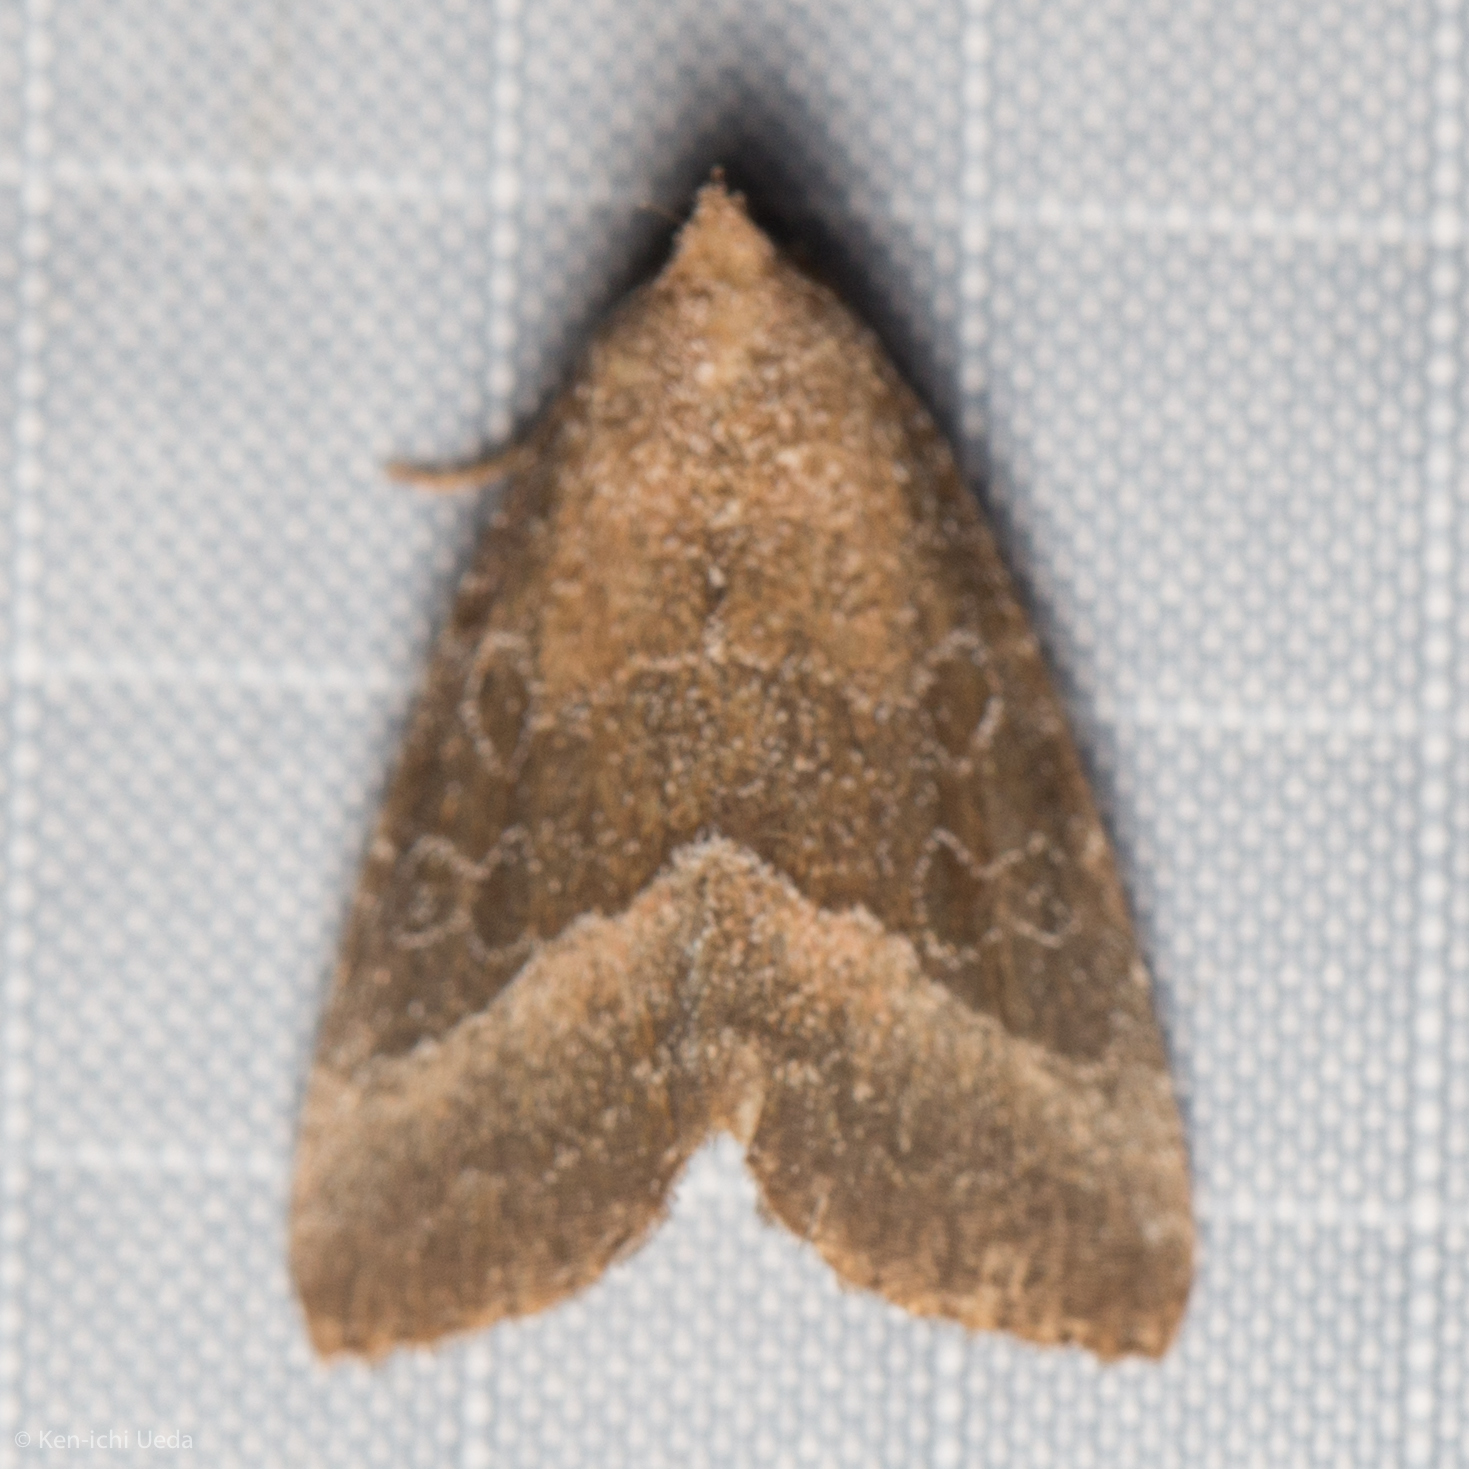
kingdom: Animalia
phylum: Arthropoda
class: Insecta
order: Lepidoptera
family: Noctuidae
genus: Ogdoconta
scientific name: Ogdoconta cinereola
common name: Common pinkband
